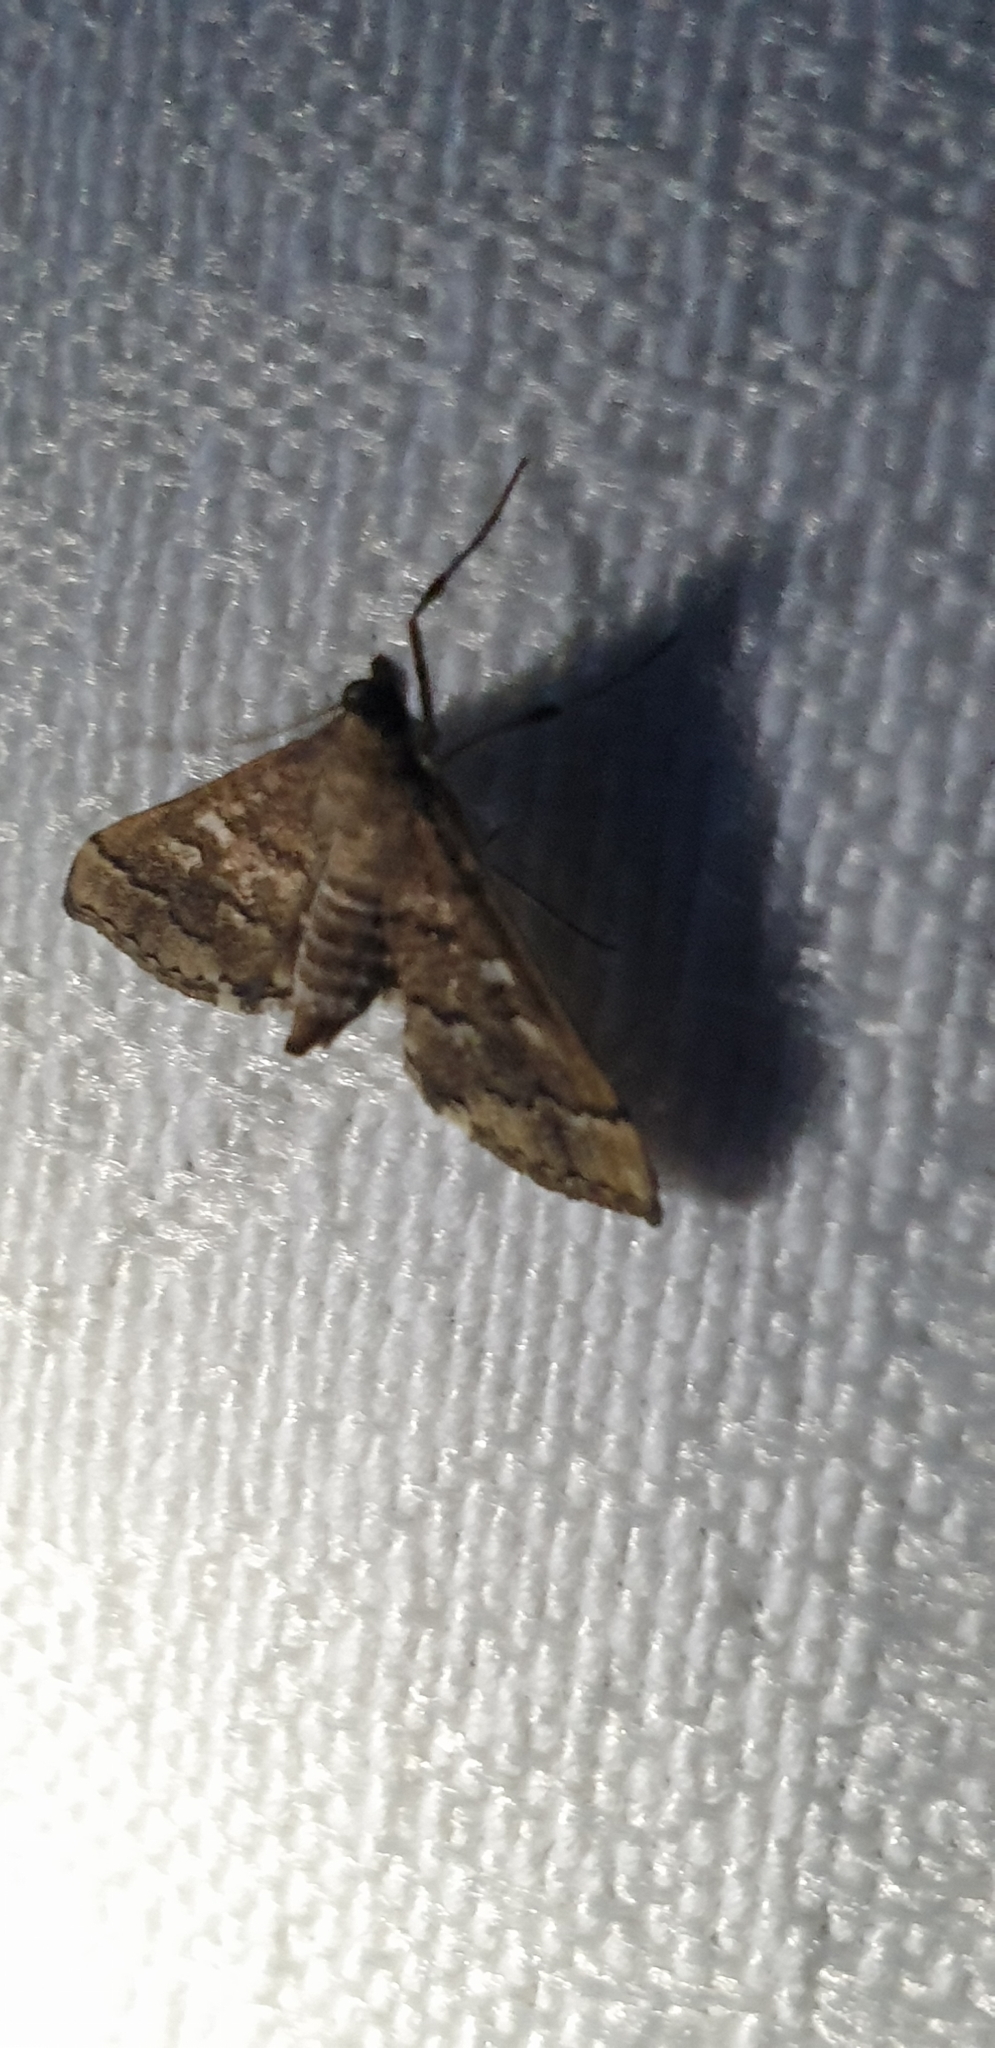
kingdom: Animalia
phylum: Arthropoda
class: Insecta
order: Lepidoptera
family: Crambidae
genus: Nacoleia
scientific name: Nacoleia rhoeoalis
